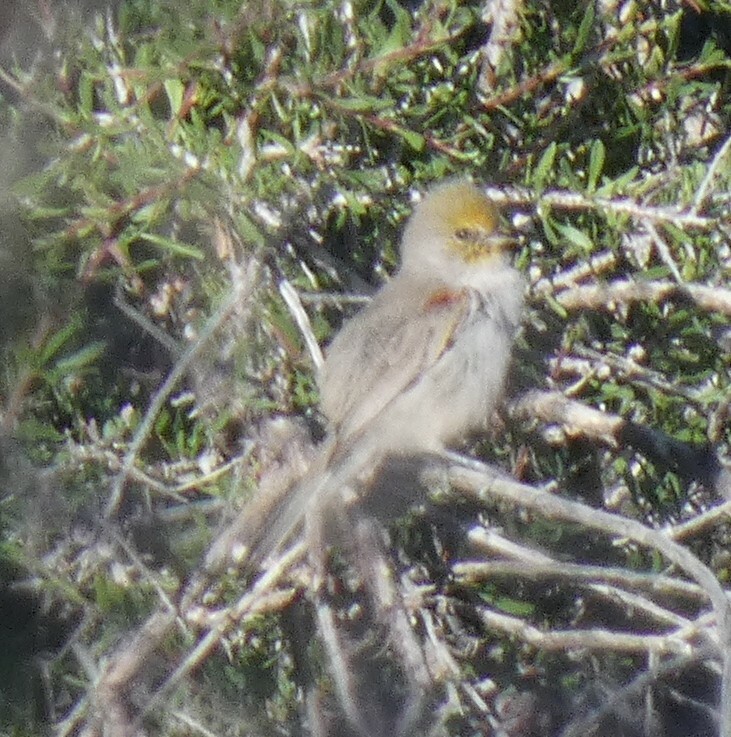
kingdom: Animalia
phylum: Chordata
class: Aves
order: Passeriformes
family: Remizidae
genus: Auriparus
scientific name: Auriparus flaviceps
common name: Verdin
